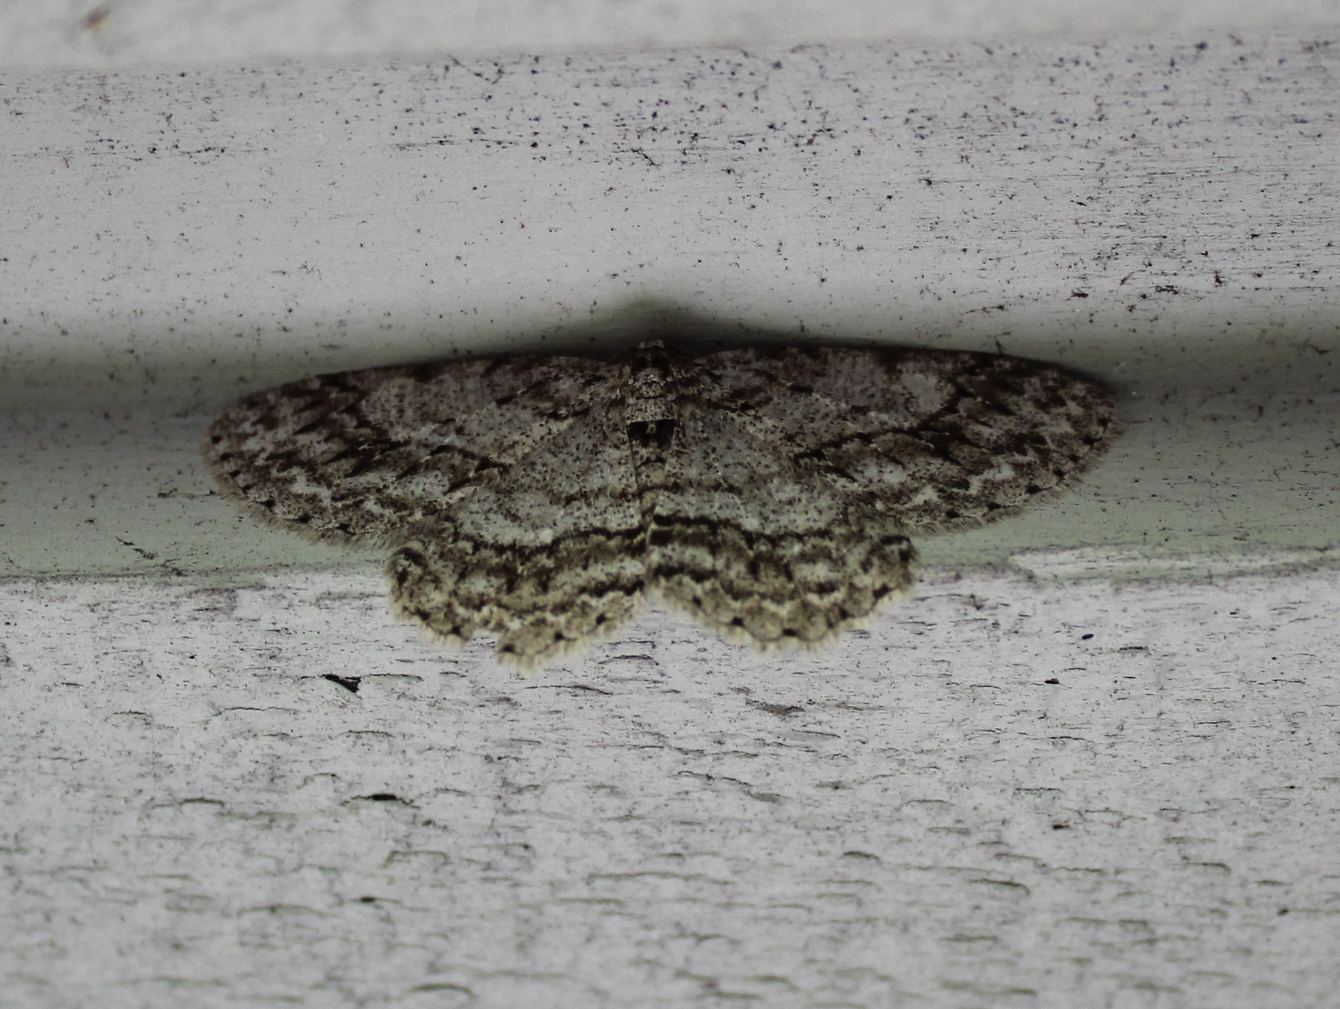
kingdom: Animalia
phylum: Arthropoda
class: Insecta
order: Lepidoptera
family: Geometridae
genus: Ectropis
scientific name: Ectropis crepuscularia
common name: Engrailed
